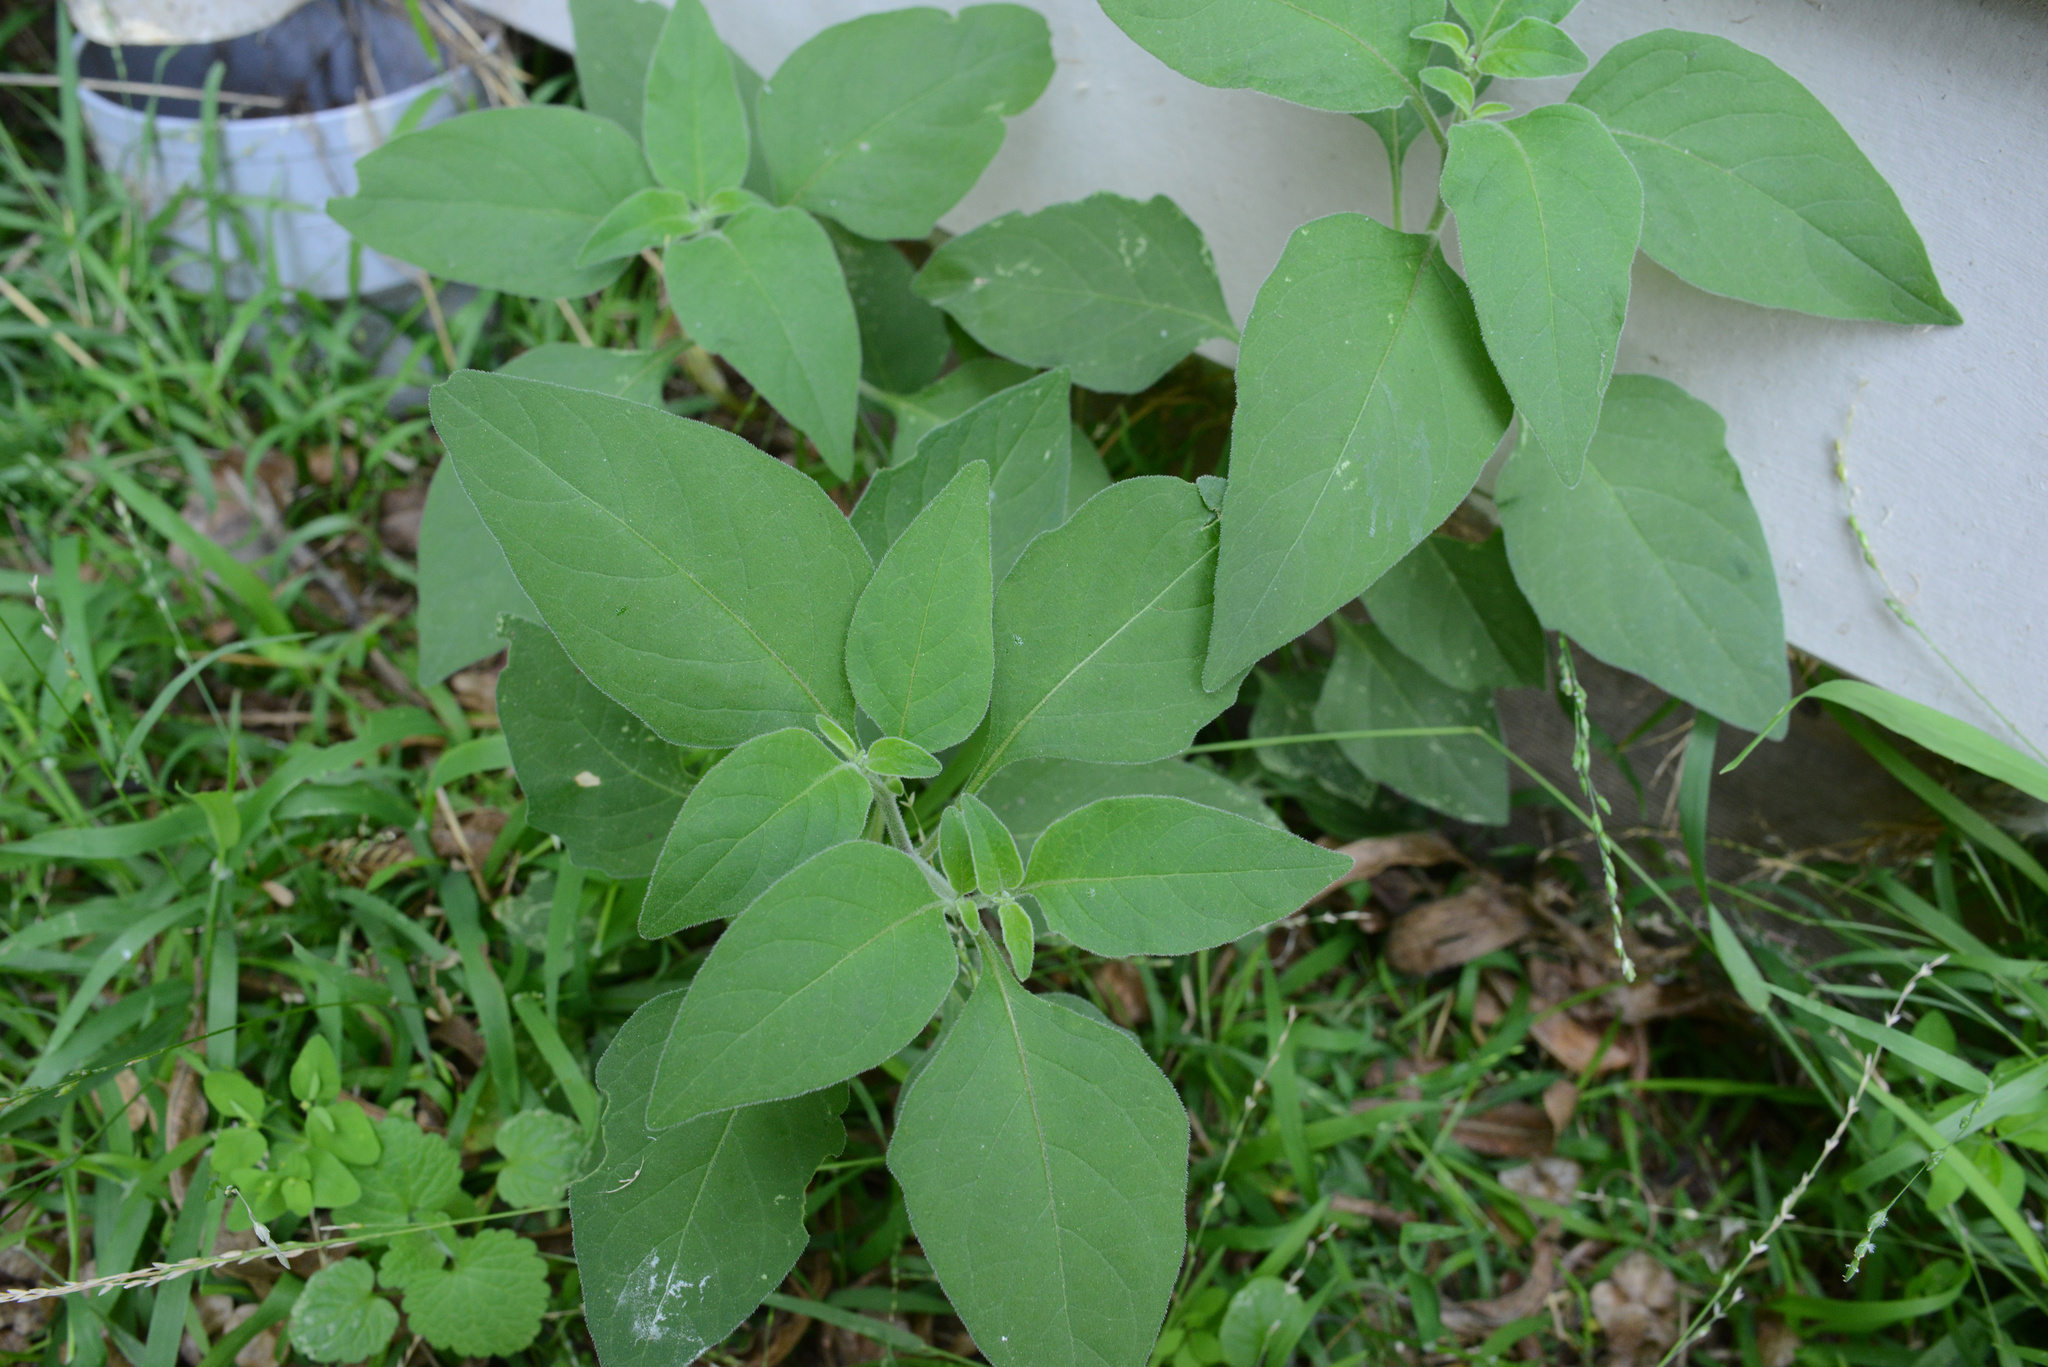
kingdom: Plantae
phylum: Tracheophyta
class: Magnoliopsida
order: Solanales
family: Solanaceae
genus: Solanum
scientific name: Solanum chenopodioides
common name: Tall nightshade
